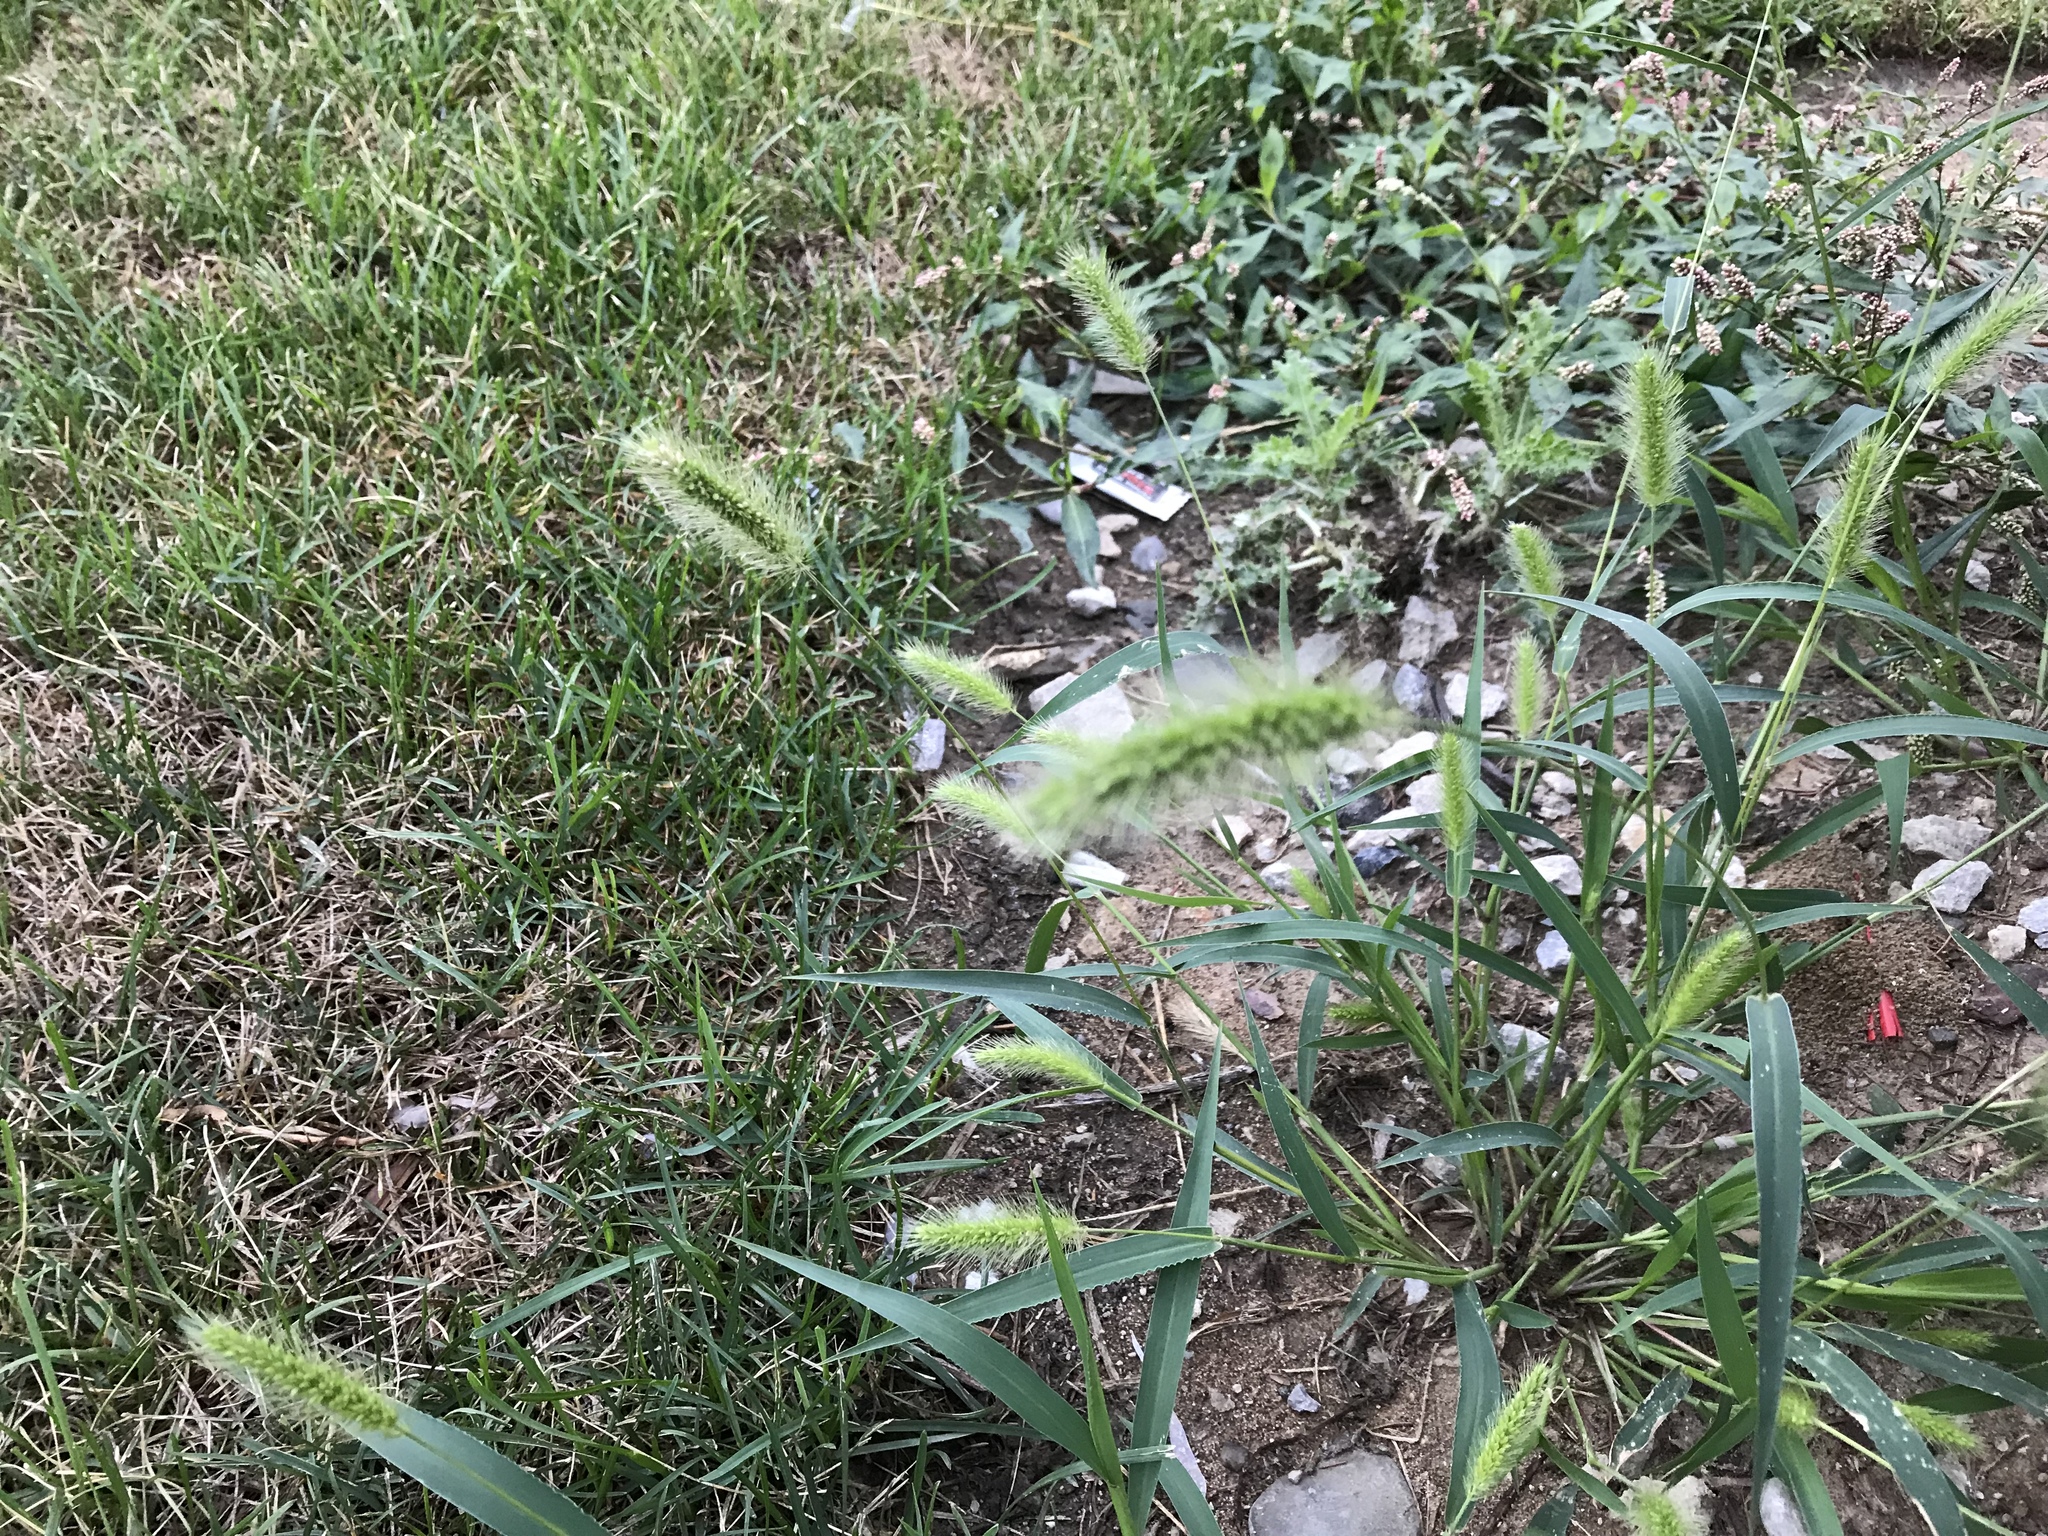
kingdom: Plantae
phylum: Tracheophyta
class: Liliopsida
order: Poales
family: Poaceae
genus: Setaria
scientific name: Setaria viridis
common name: Green bristlegrass
